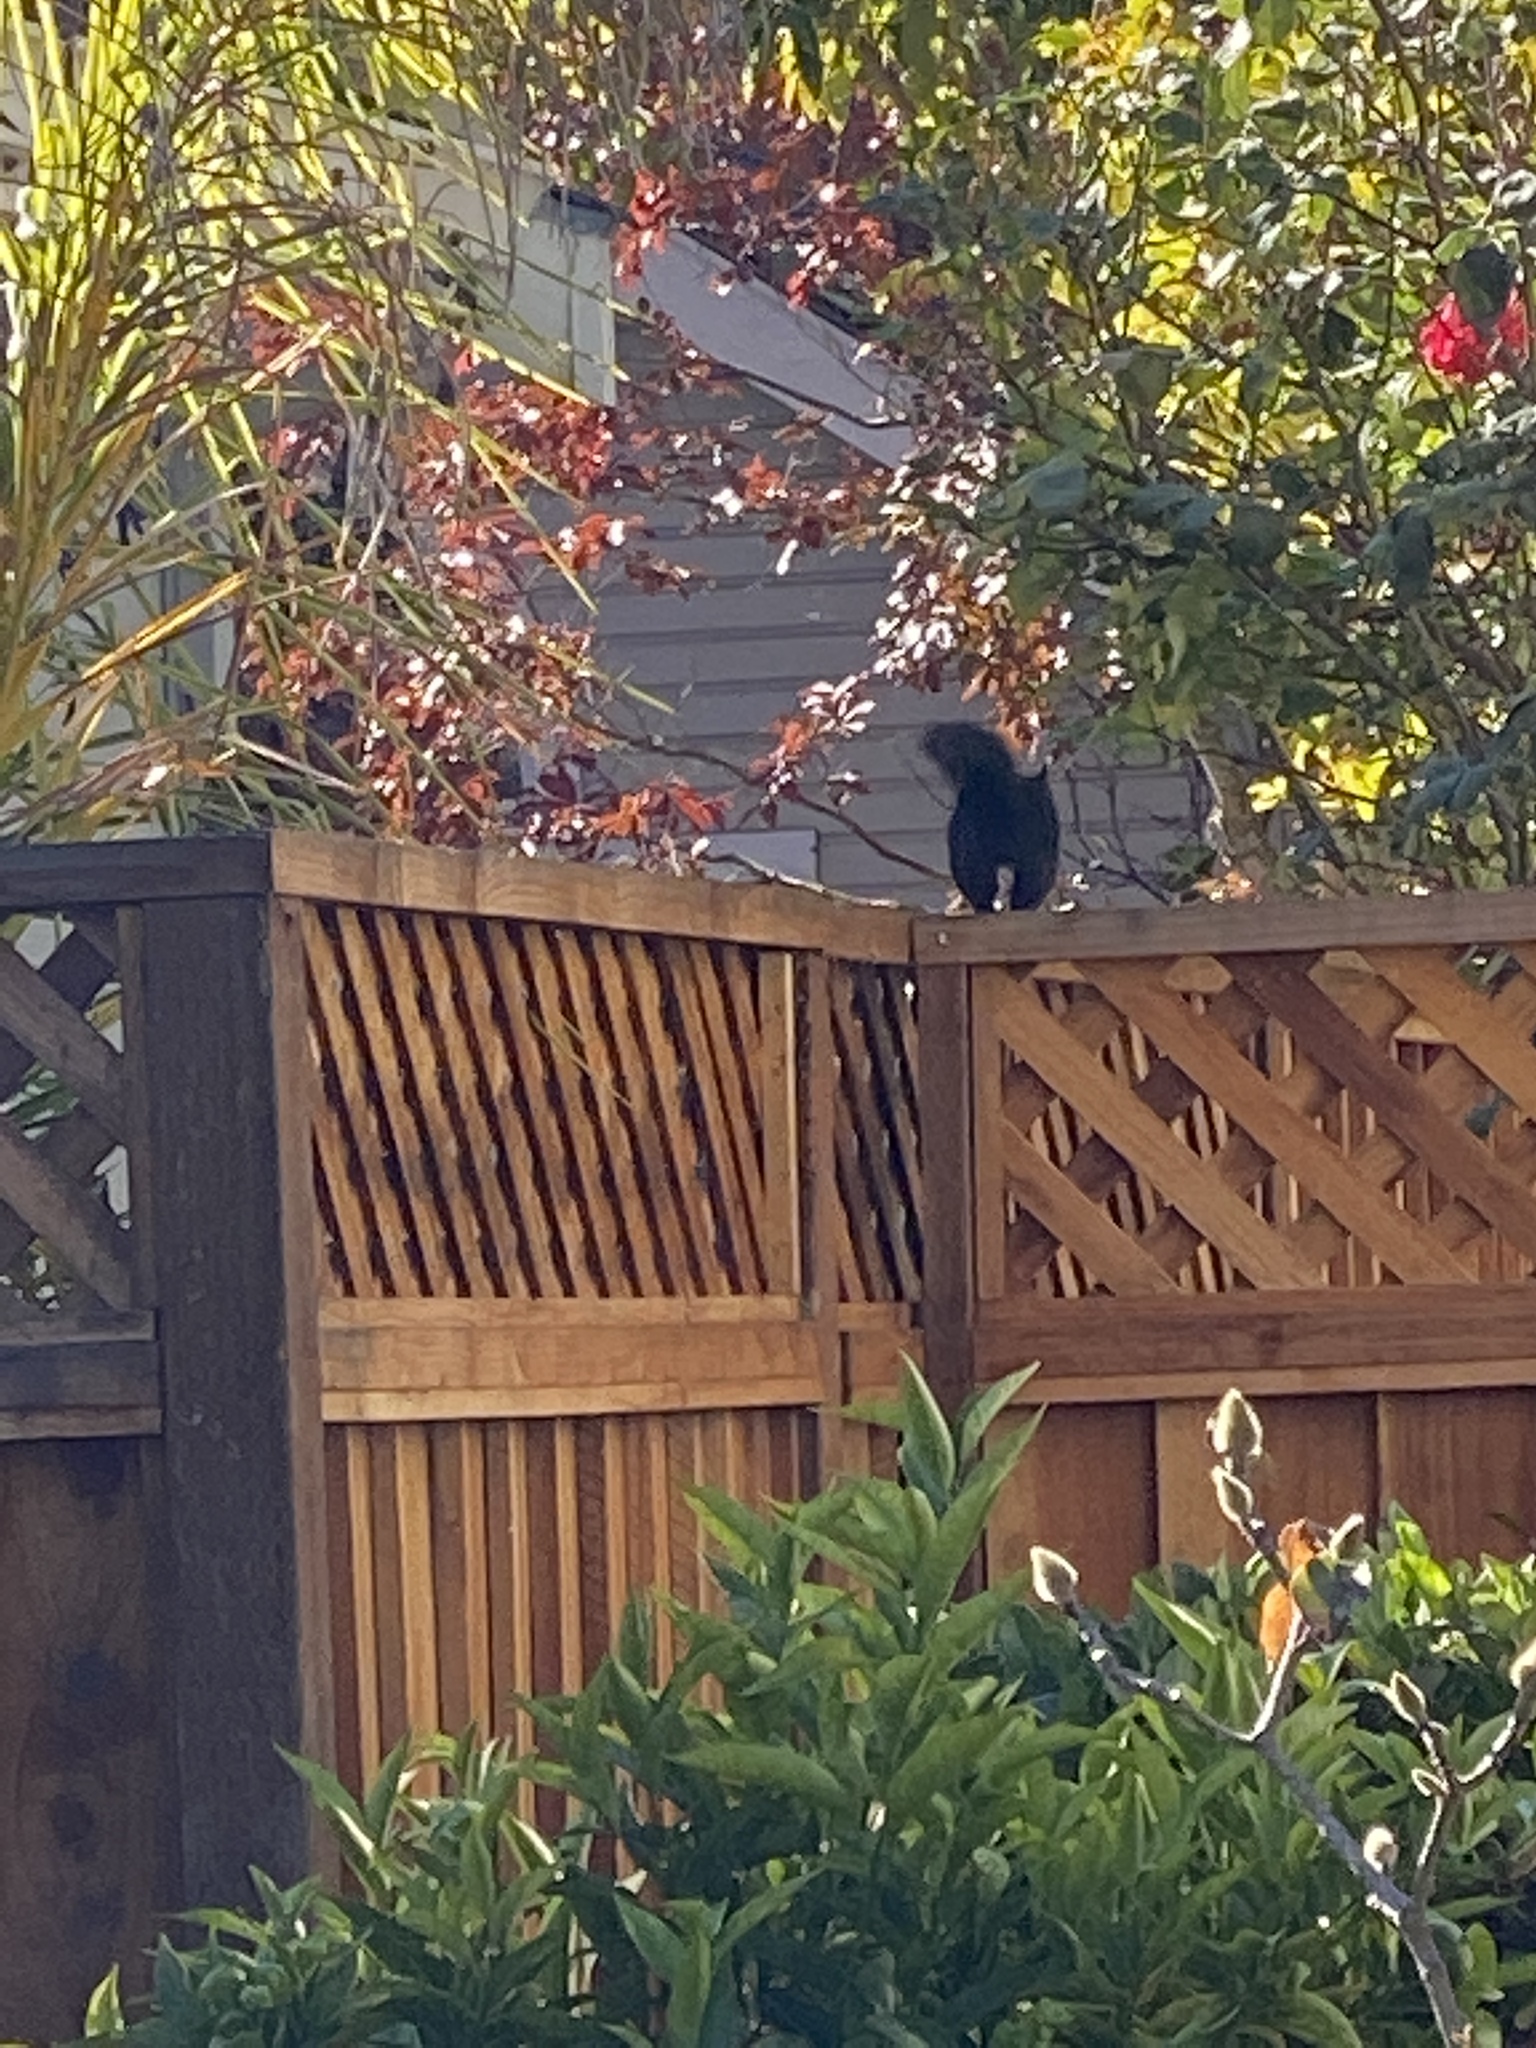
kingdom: Animalia
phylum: Chordata
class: Mammalia
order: Rodentia
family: Sciuridae
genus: Sciurus
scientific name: Sciurus carolinensis
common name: Eastern gray squirrel
